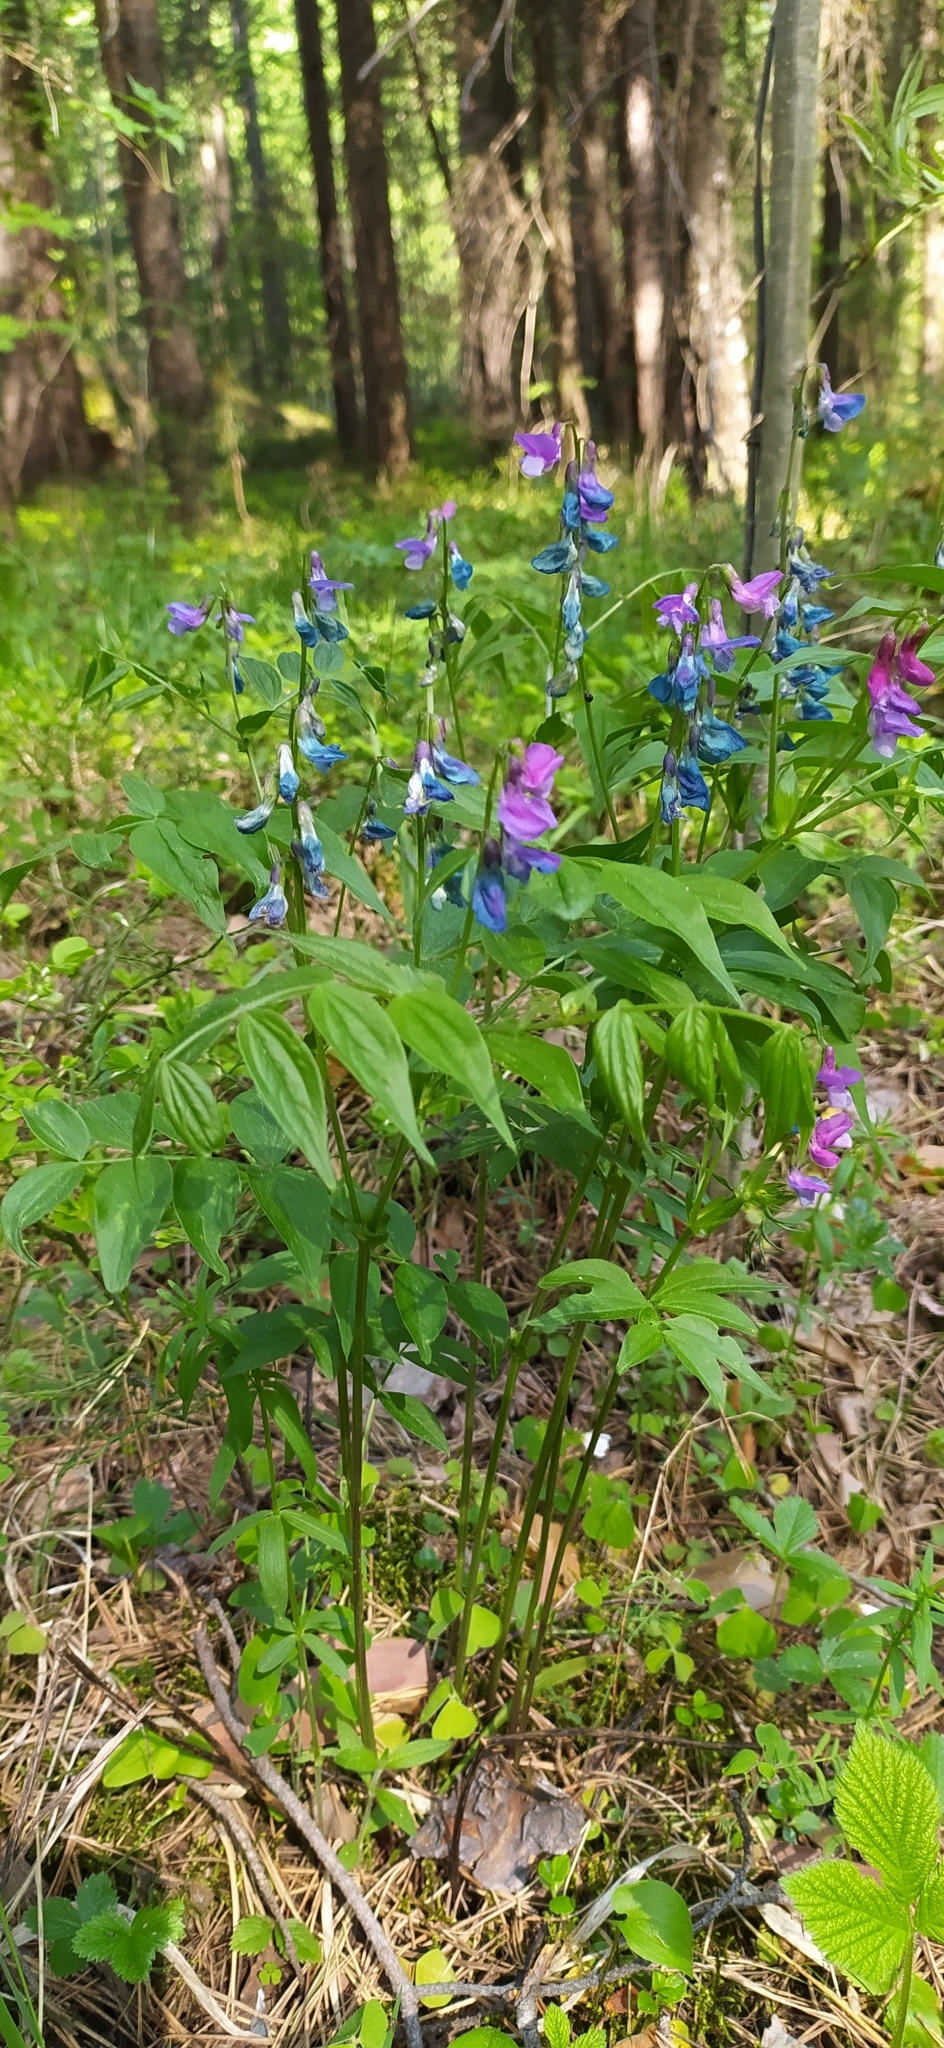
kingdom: Plantae
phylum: Tracheophyta
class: Magnoliopsida
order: Fabales
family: Fabaceae
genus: Lathyrus
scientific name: Lathyrus vernus
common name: Spring pea
